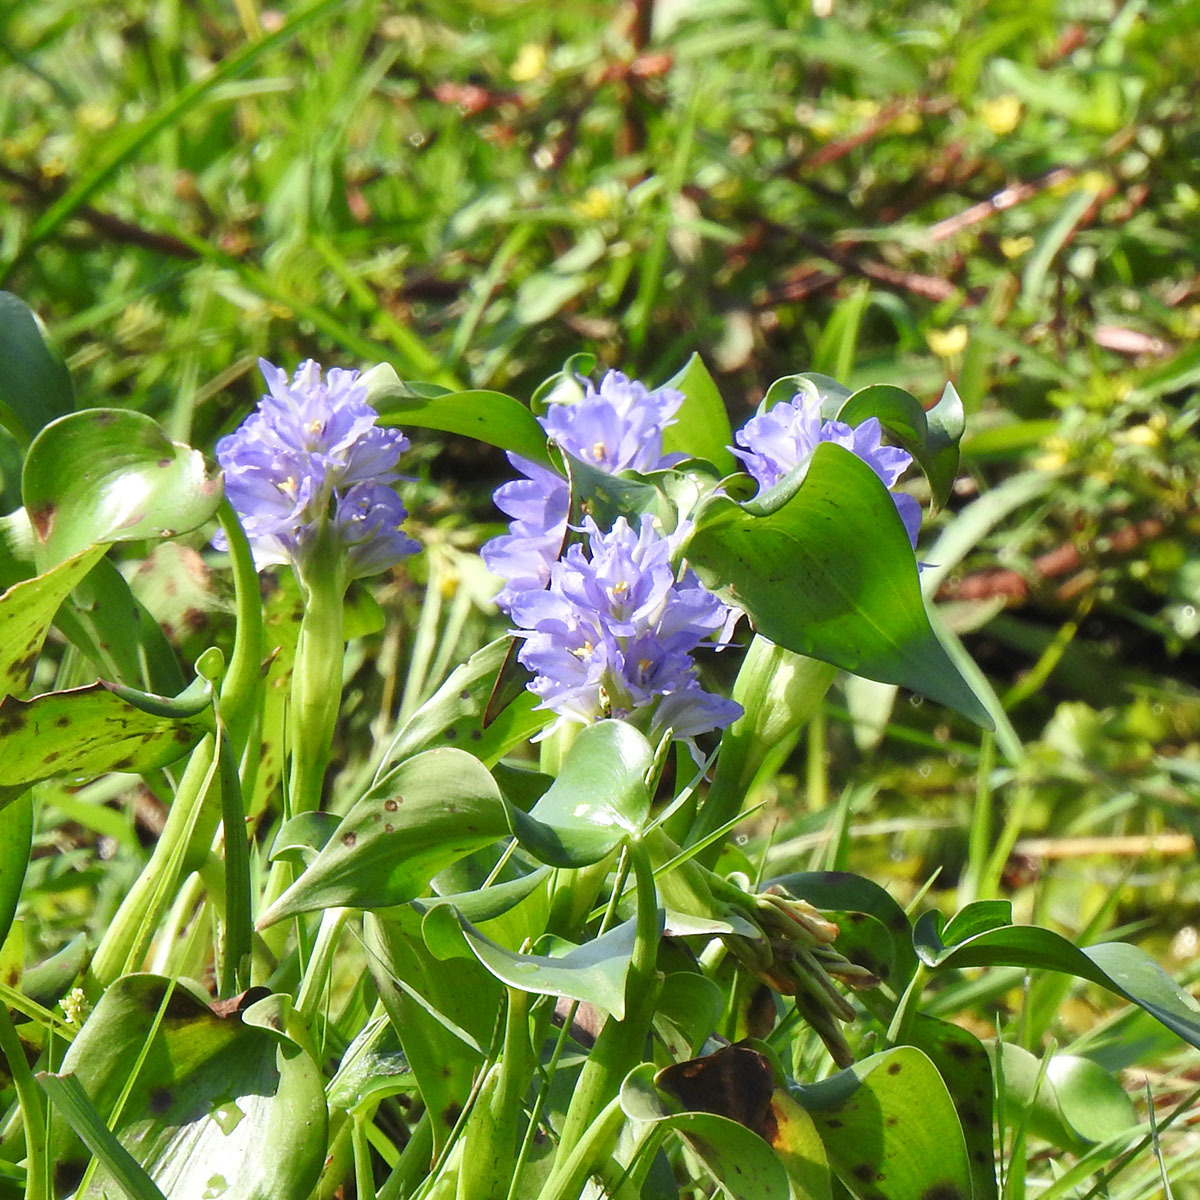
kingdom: Plantae
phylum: Tracheophyta
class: Liliopsida
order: Commelinales
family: Pontederiaceae
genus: Pontederia
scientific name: Pontederia vaginalis
